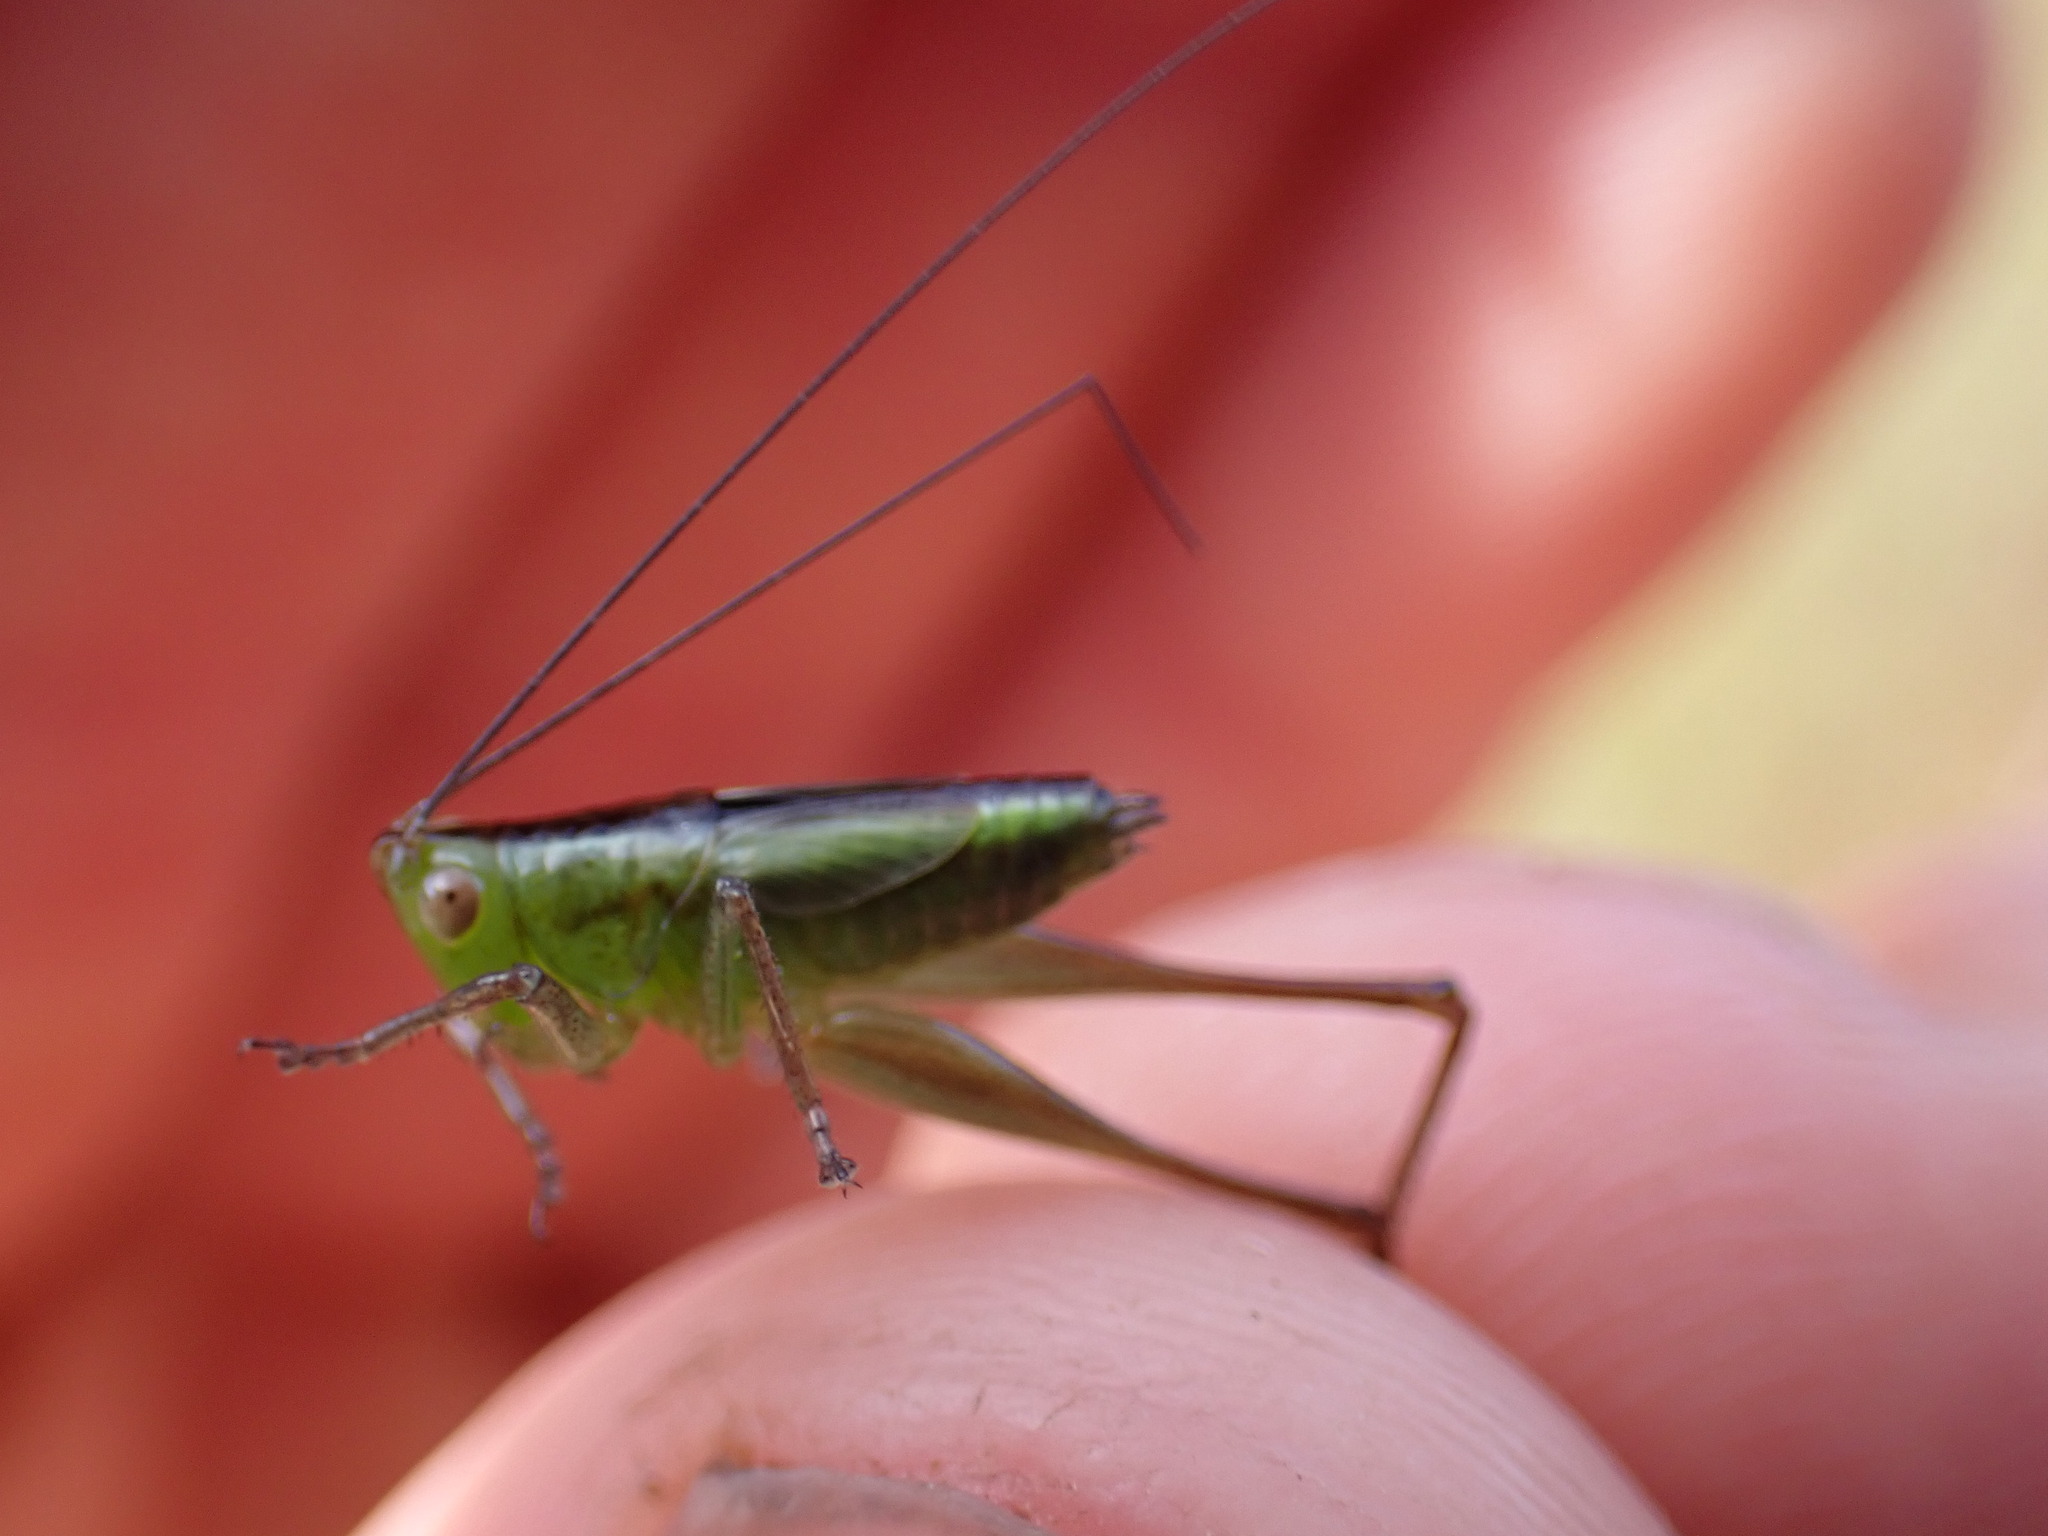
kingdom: Animalia
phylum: Arthropoda
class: Insecta
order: Orthoptera
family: Tettigoniidae
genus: Conocephalus
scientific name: Conocephalus fasciatus
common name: Slender meadow katydid
